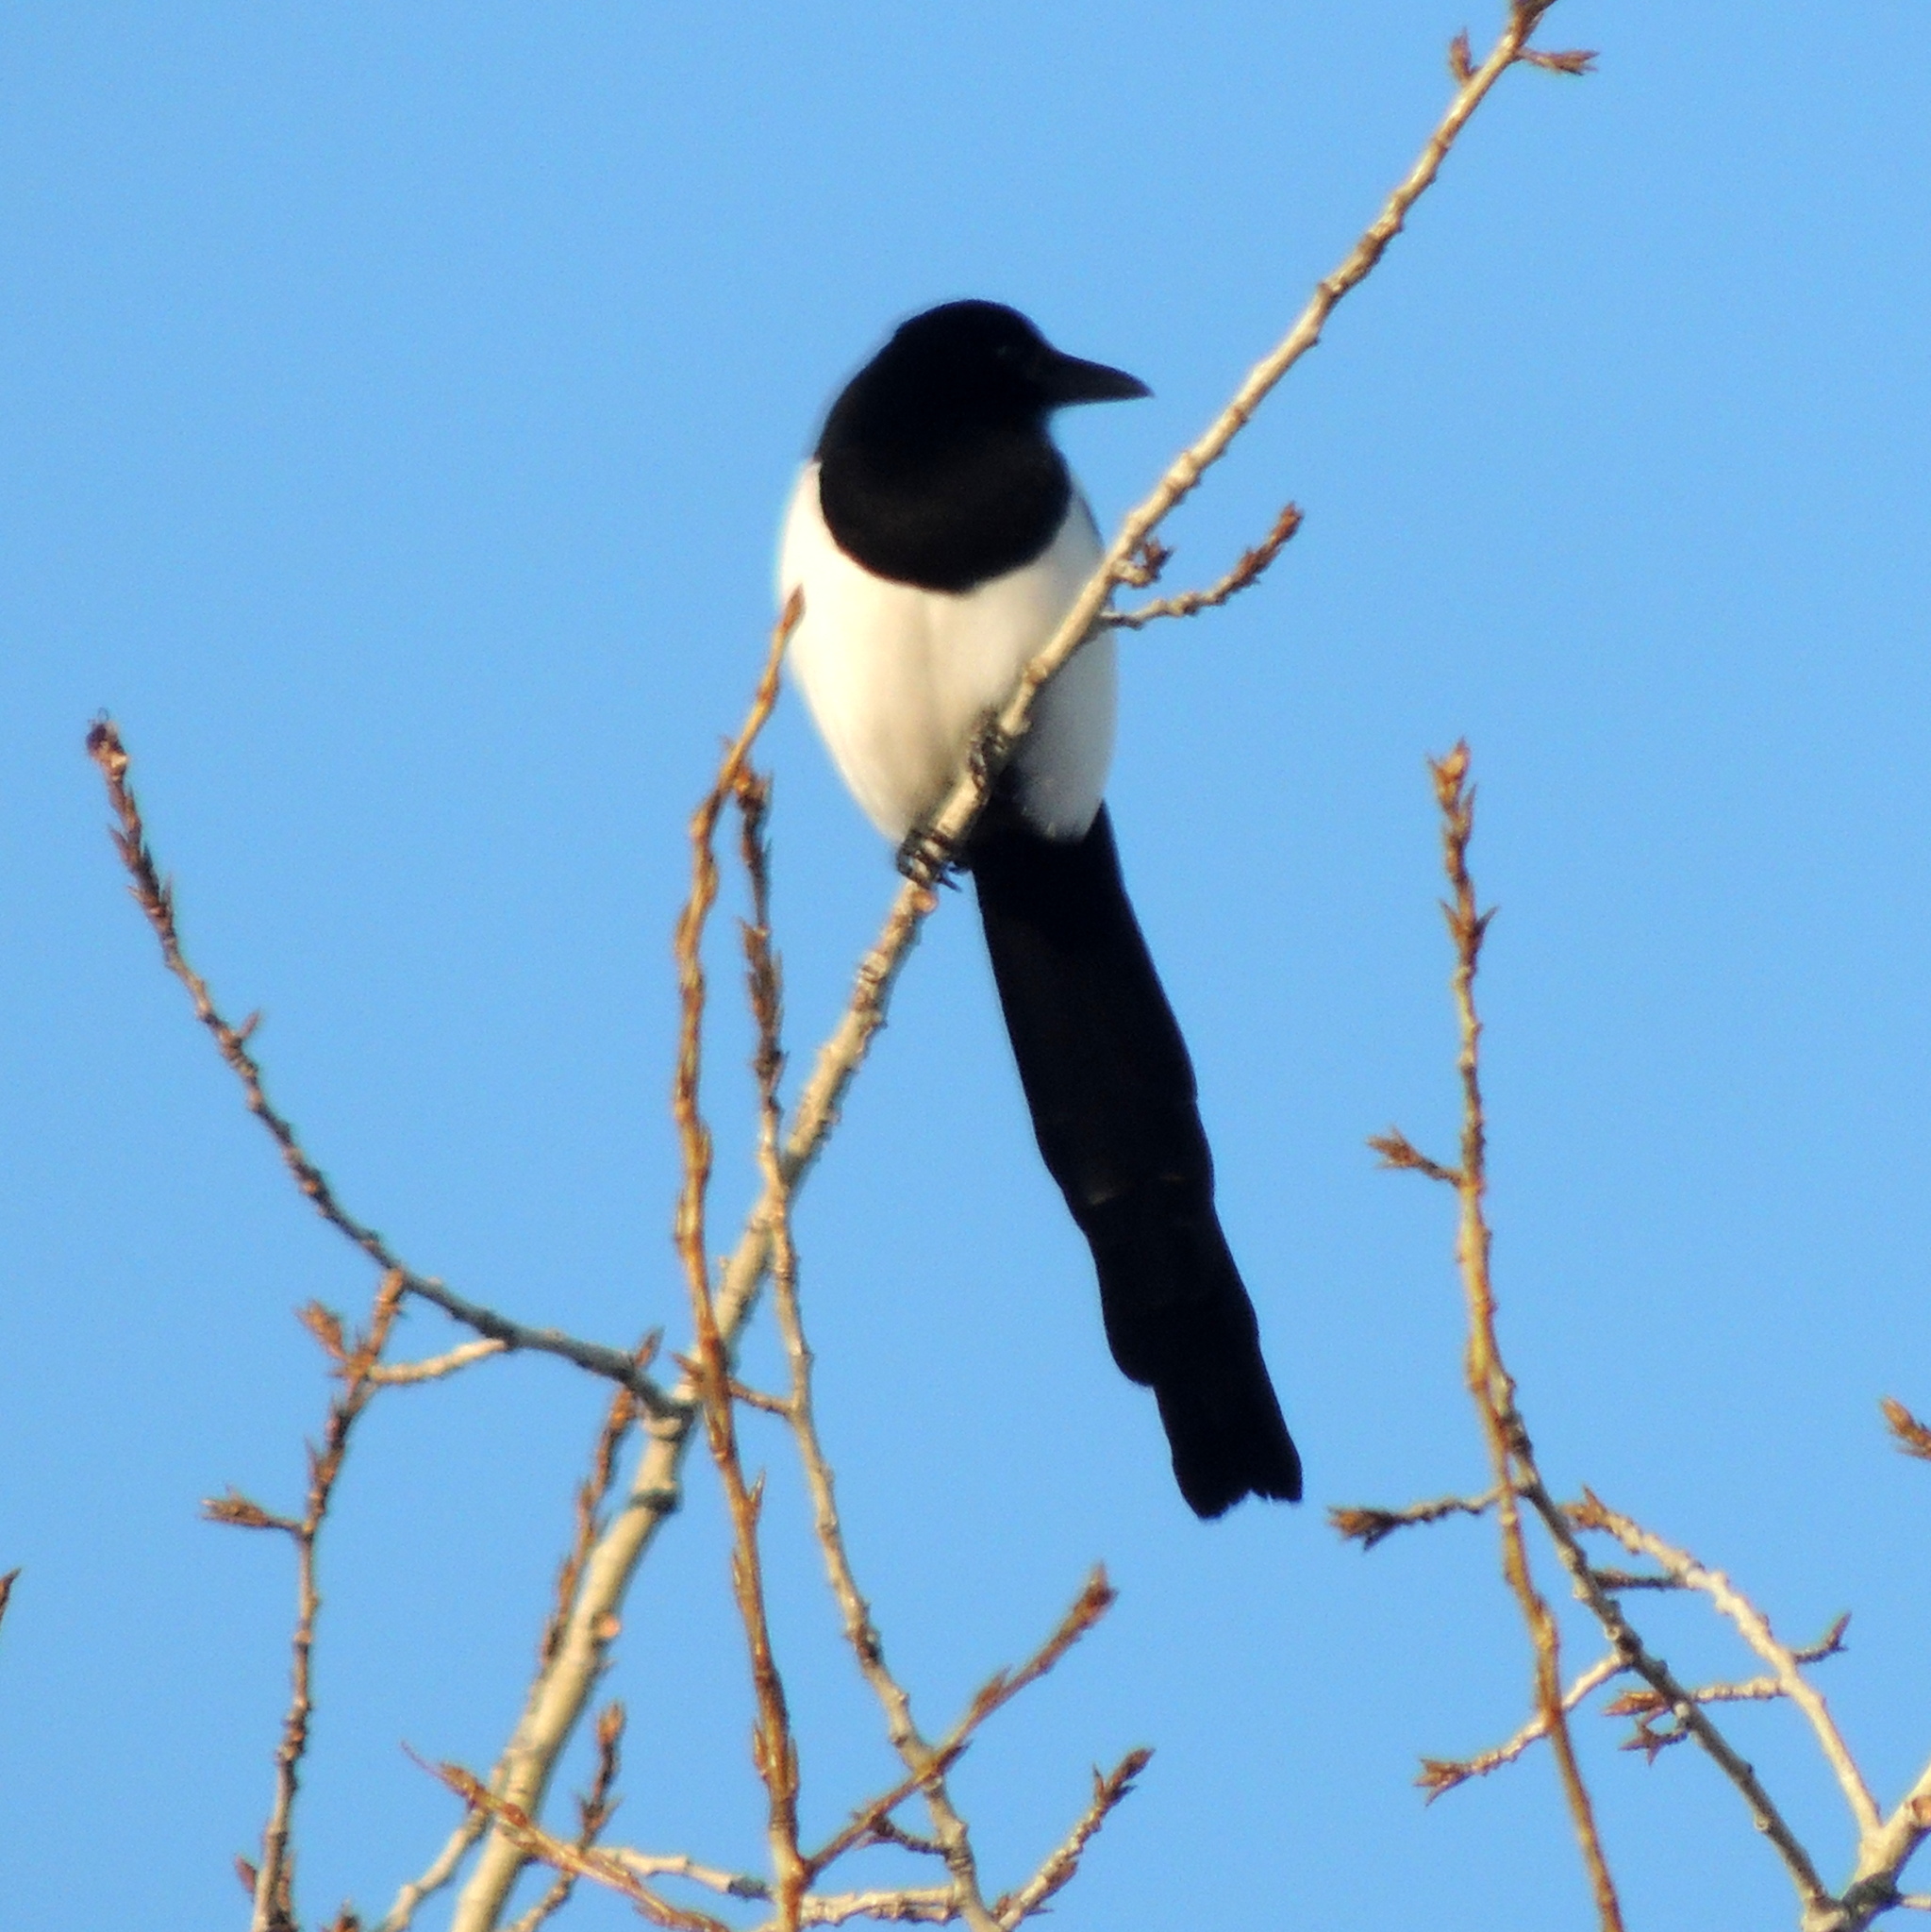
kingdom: Animalia
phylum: Chordata
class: Aves
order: Passeriformes
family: Corvidae
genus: Pica
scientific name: Pica pica
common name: Eurasian magpie
